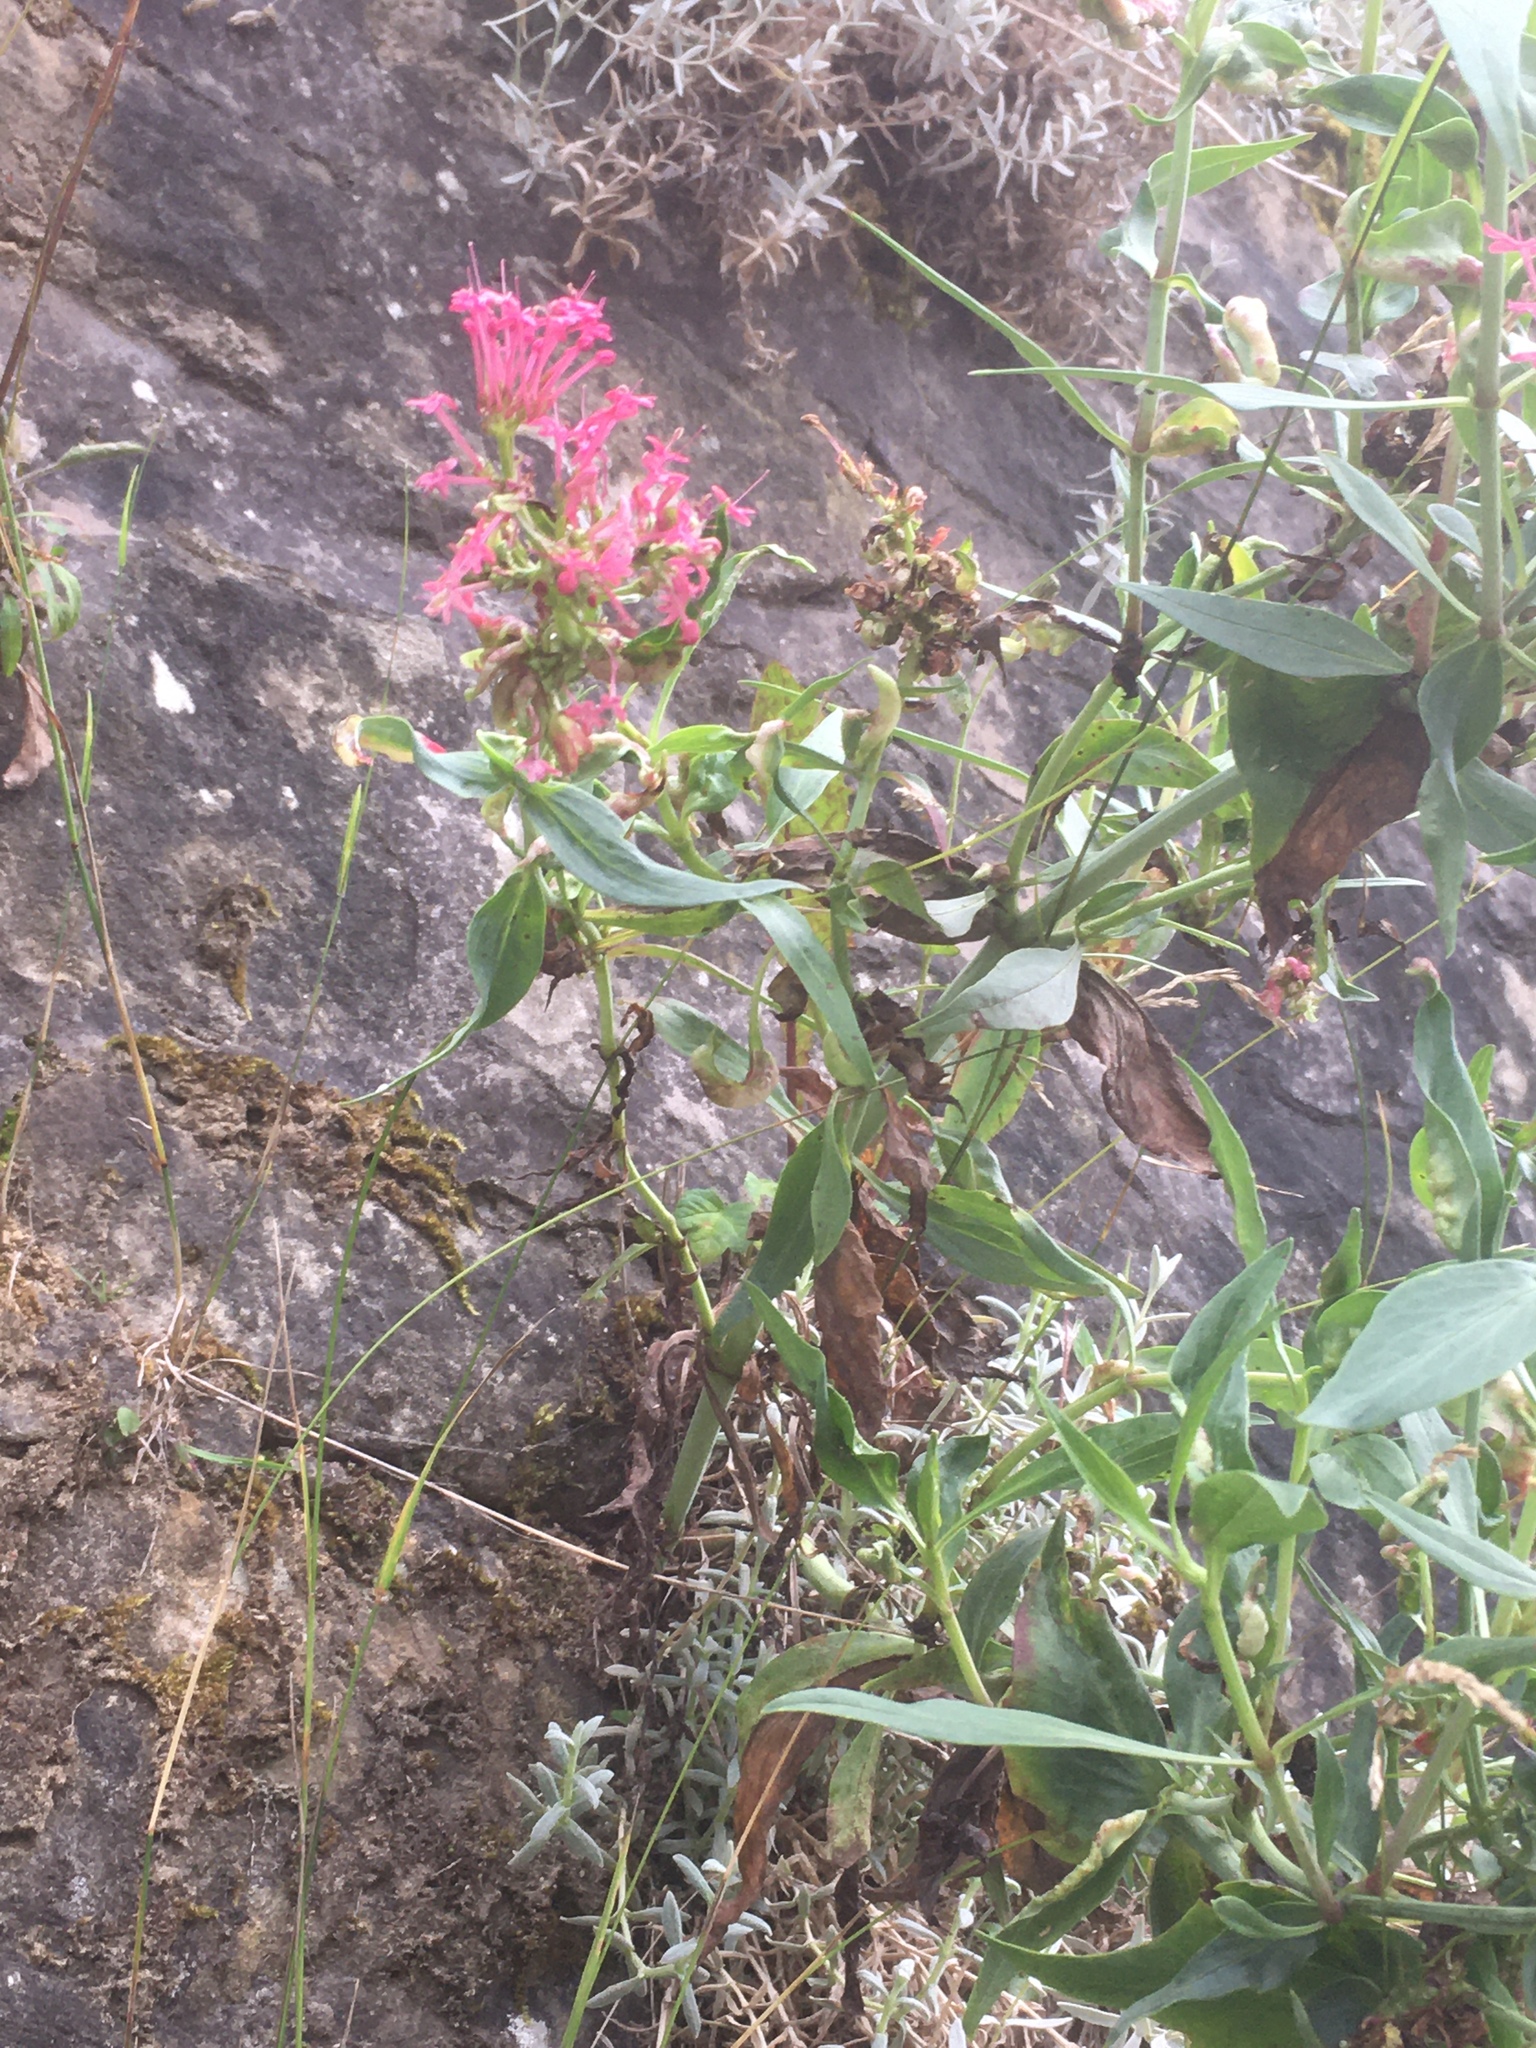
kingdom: Plantae
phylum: Tracheophyta
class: Magnoliopsida
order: Dipsacales
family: Caprifoliaceae
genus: Centranthus
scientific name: Centranthus ruber
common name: Red valerian
